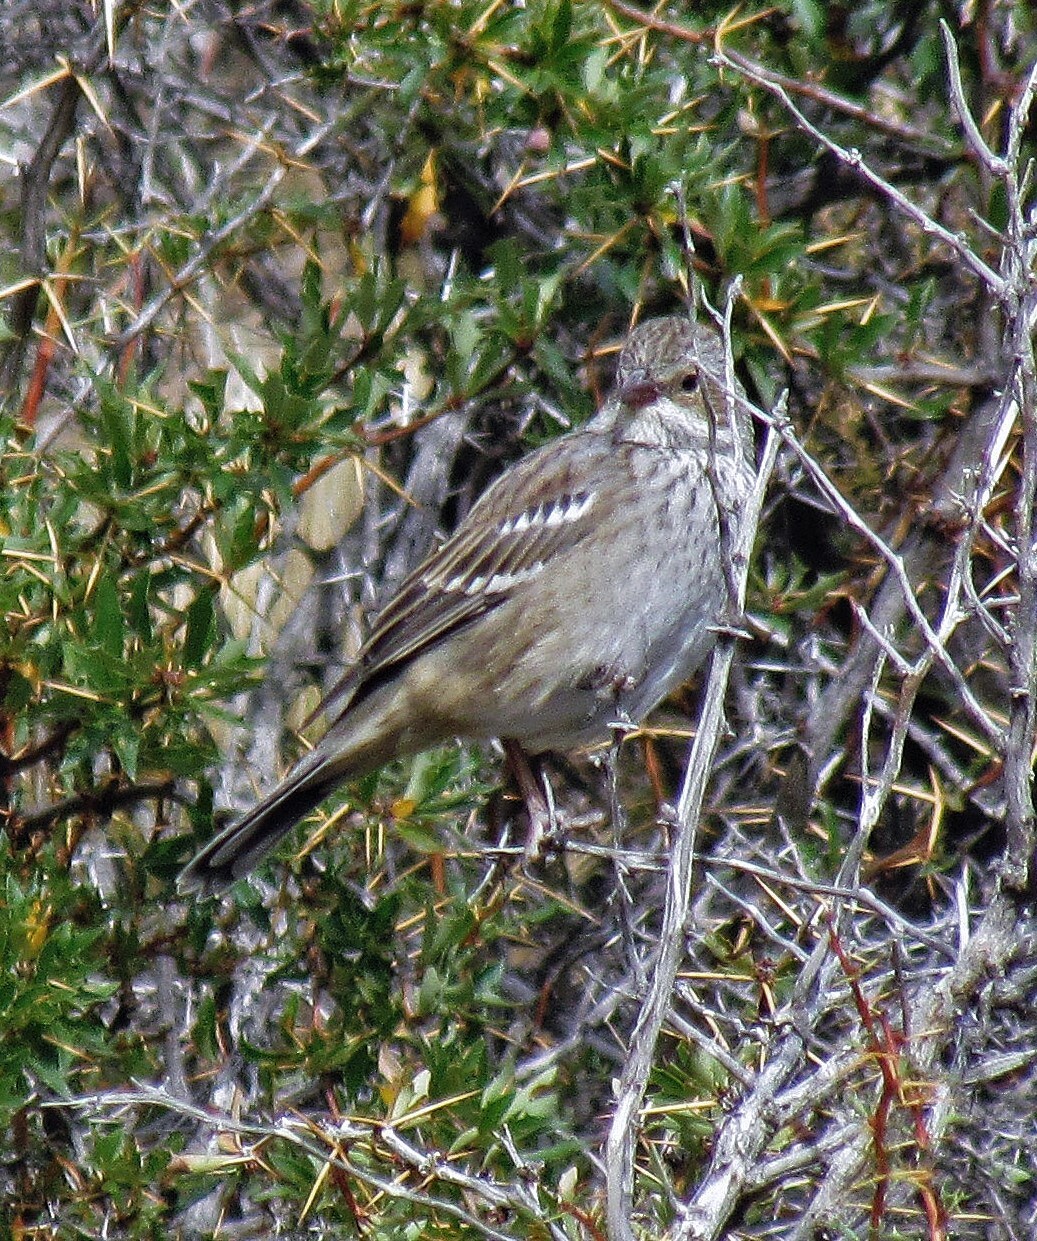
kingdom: Animalia
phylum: Chordata
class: Aves
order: Passeriformes
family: Thraupidae
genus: Rhopospina
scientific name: Rhopospina fruticeti
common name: Mourning sierra finch
